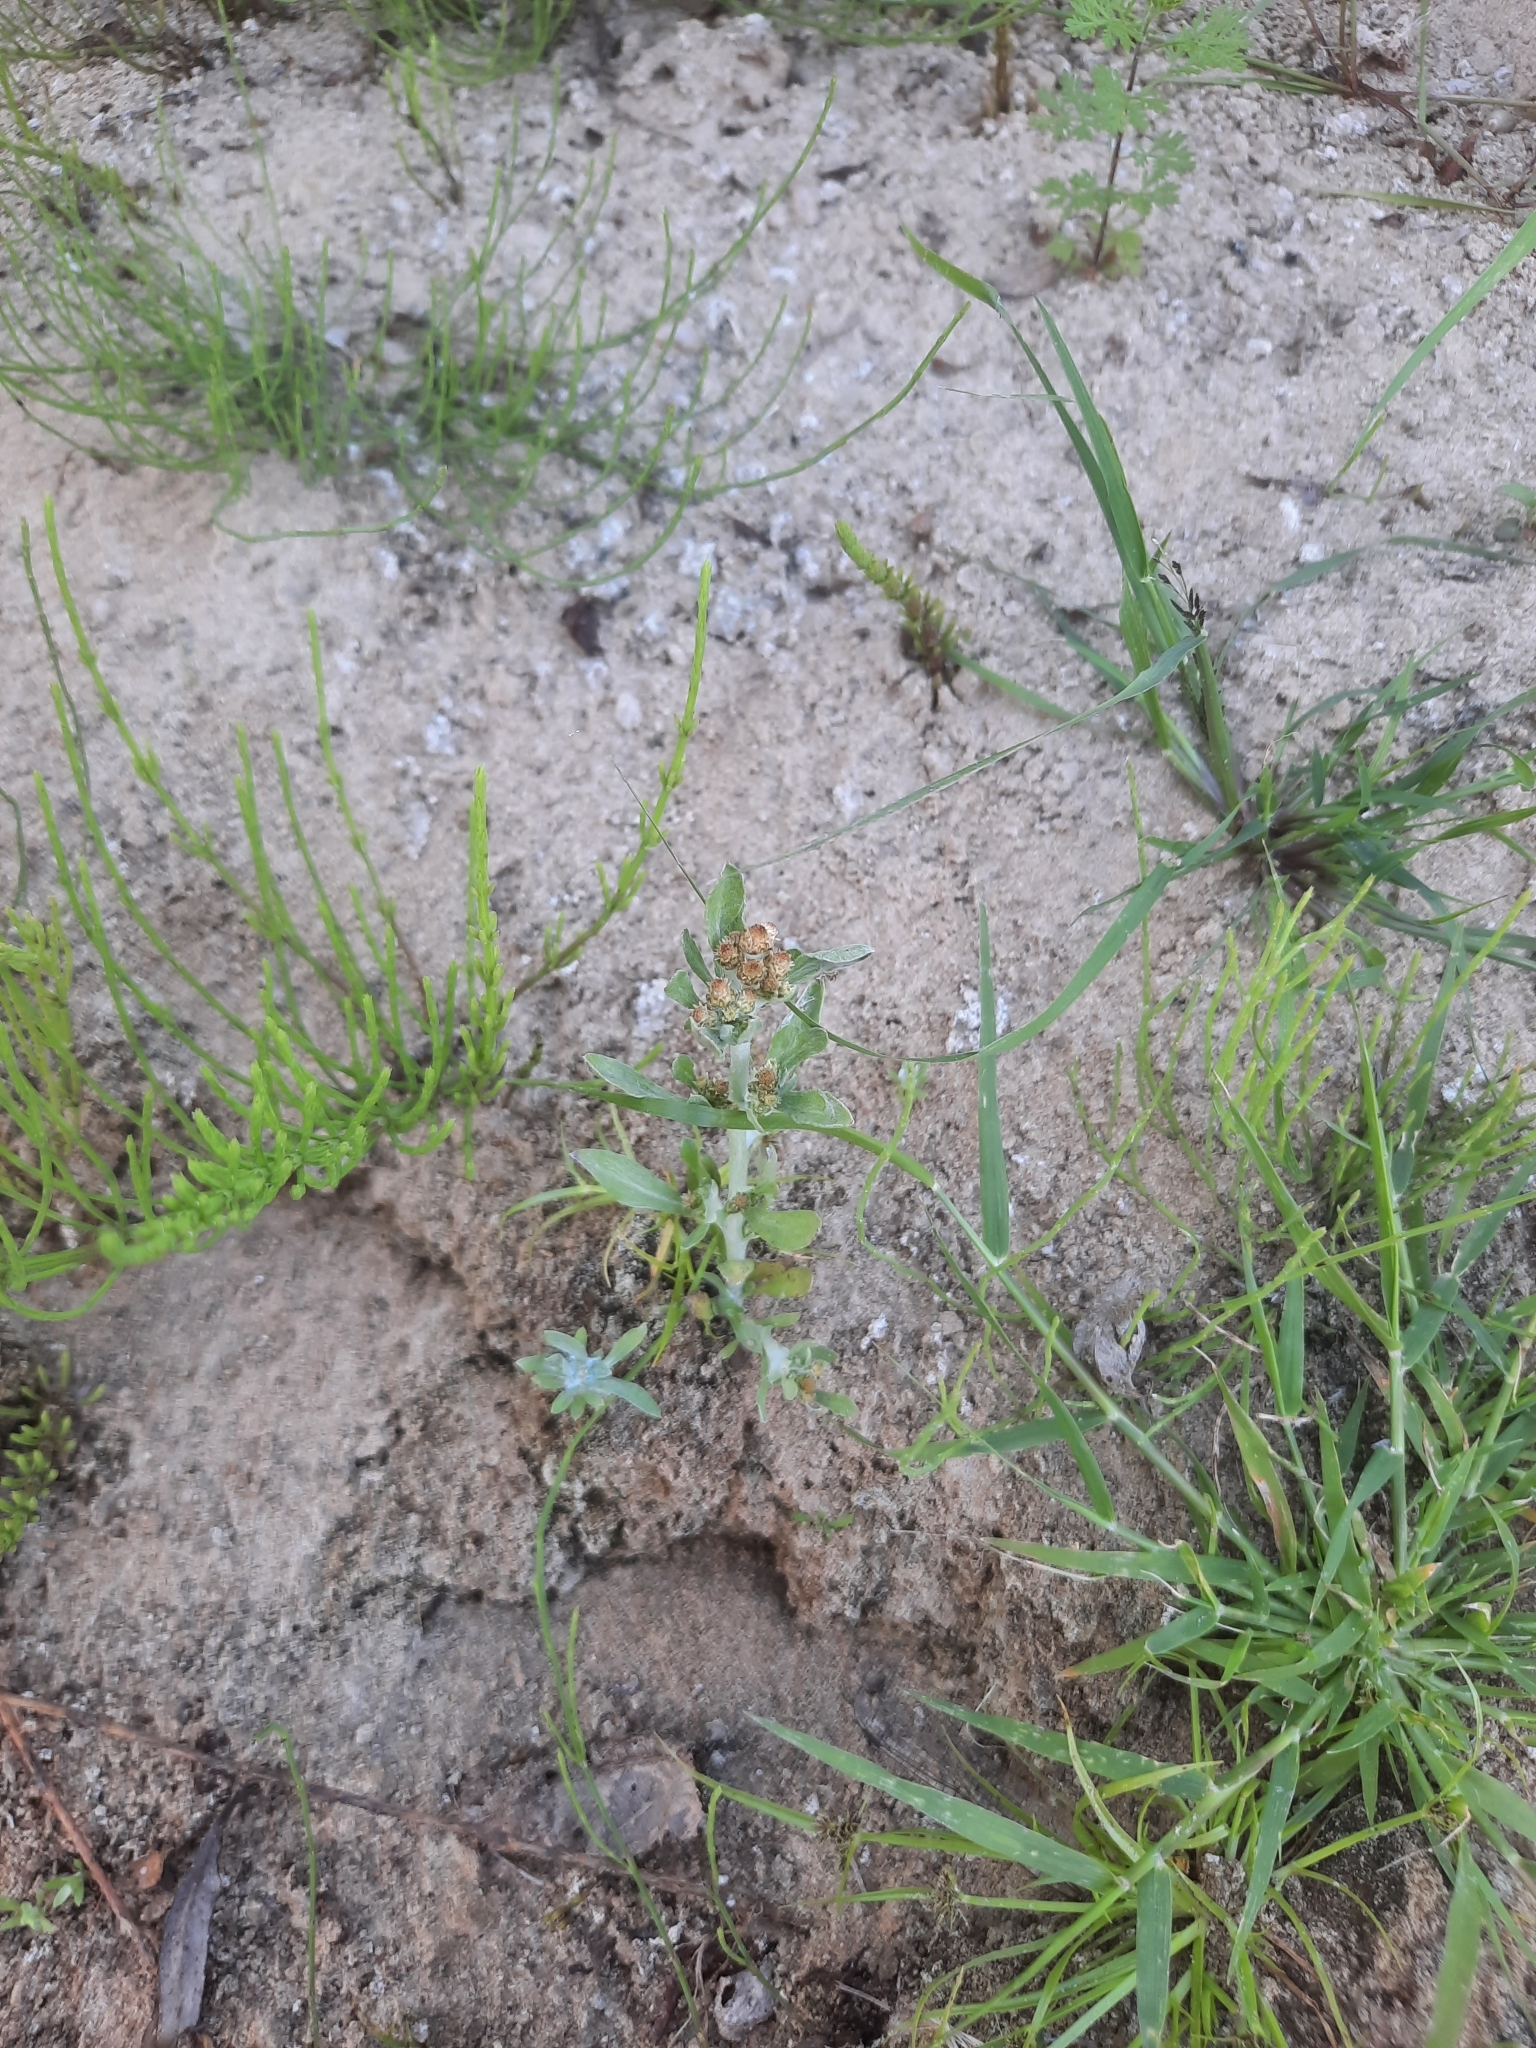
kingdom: Plantae
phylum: Tracheophyta
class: Magnoliopsida
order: Asterales
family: Asteraceae
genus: Gnaphalium
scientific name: Gnaphalium uliginosum
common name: Marsh cudweed
